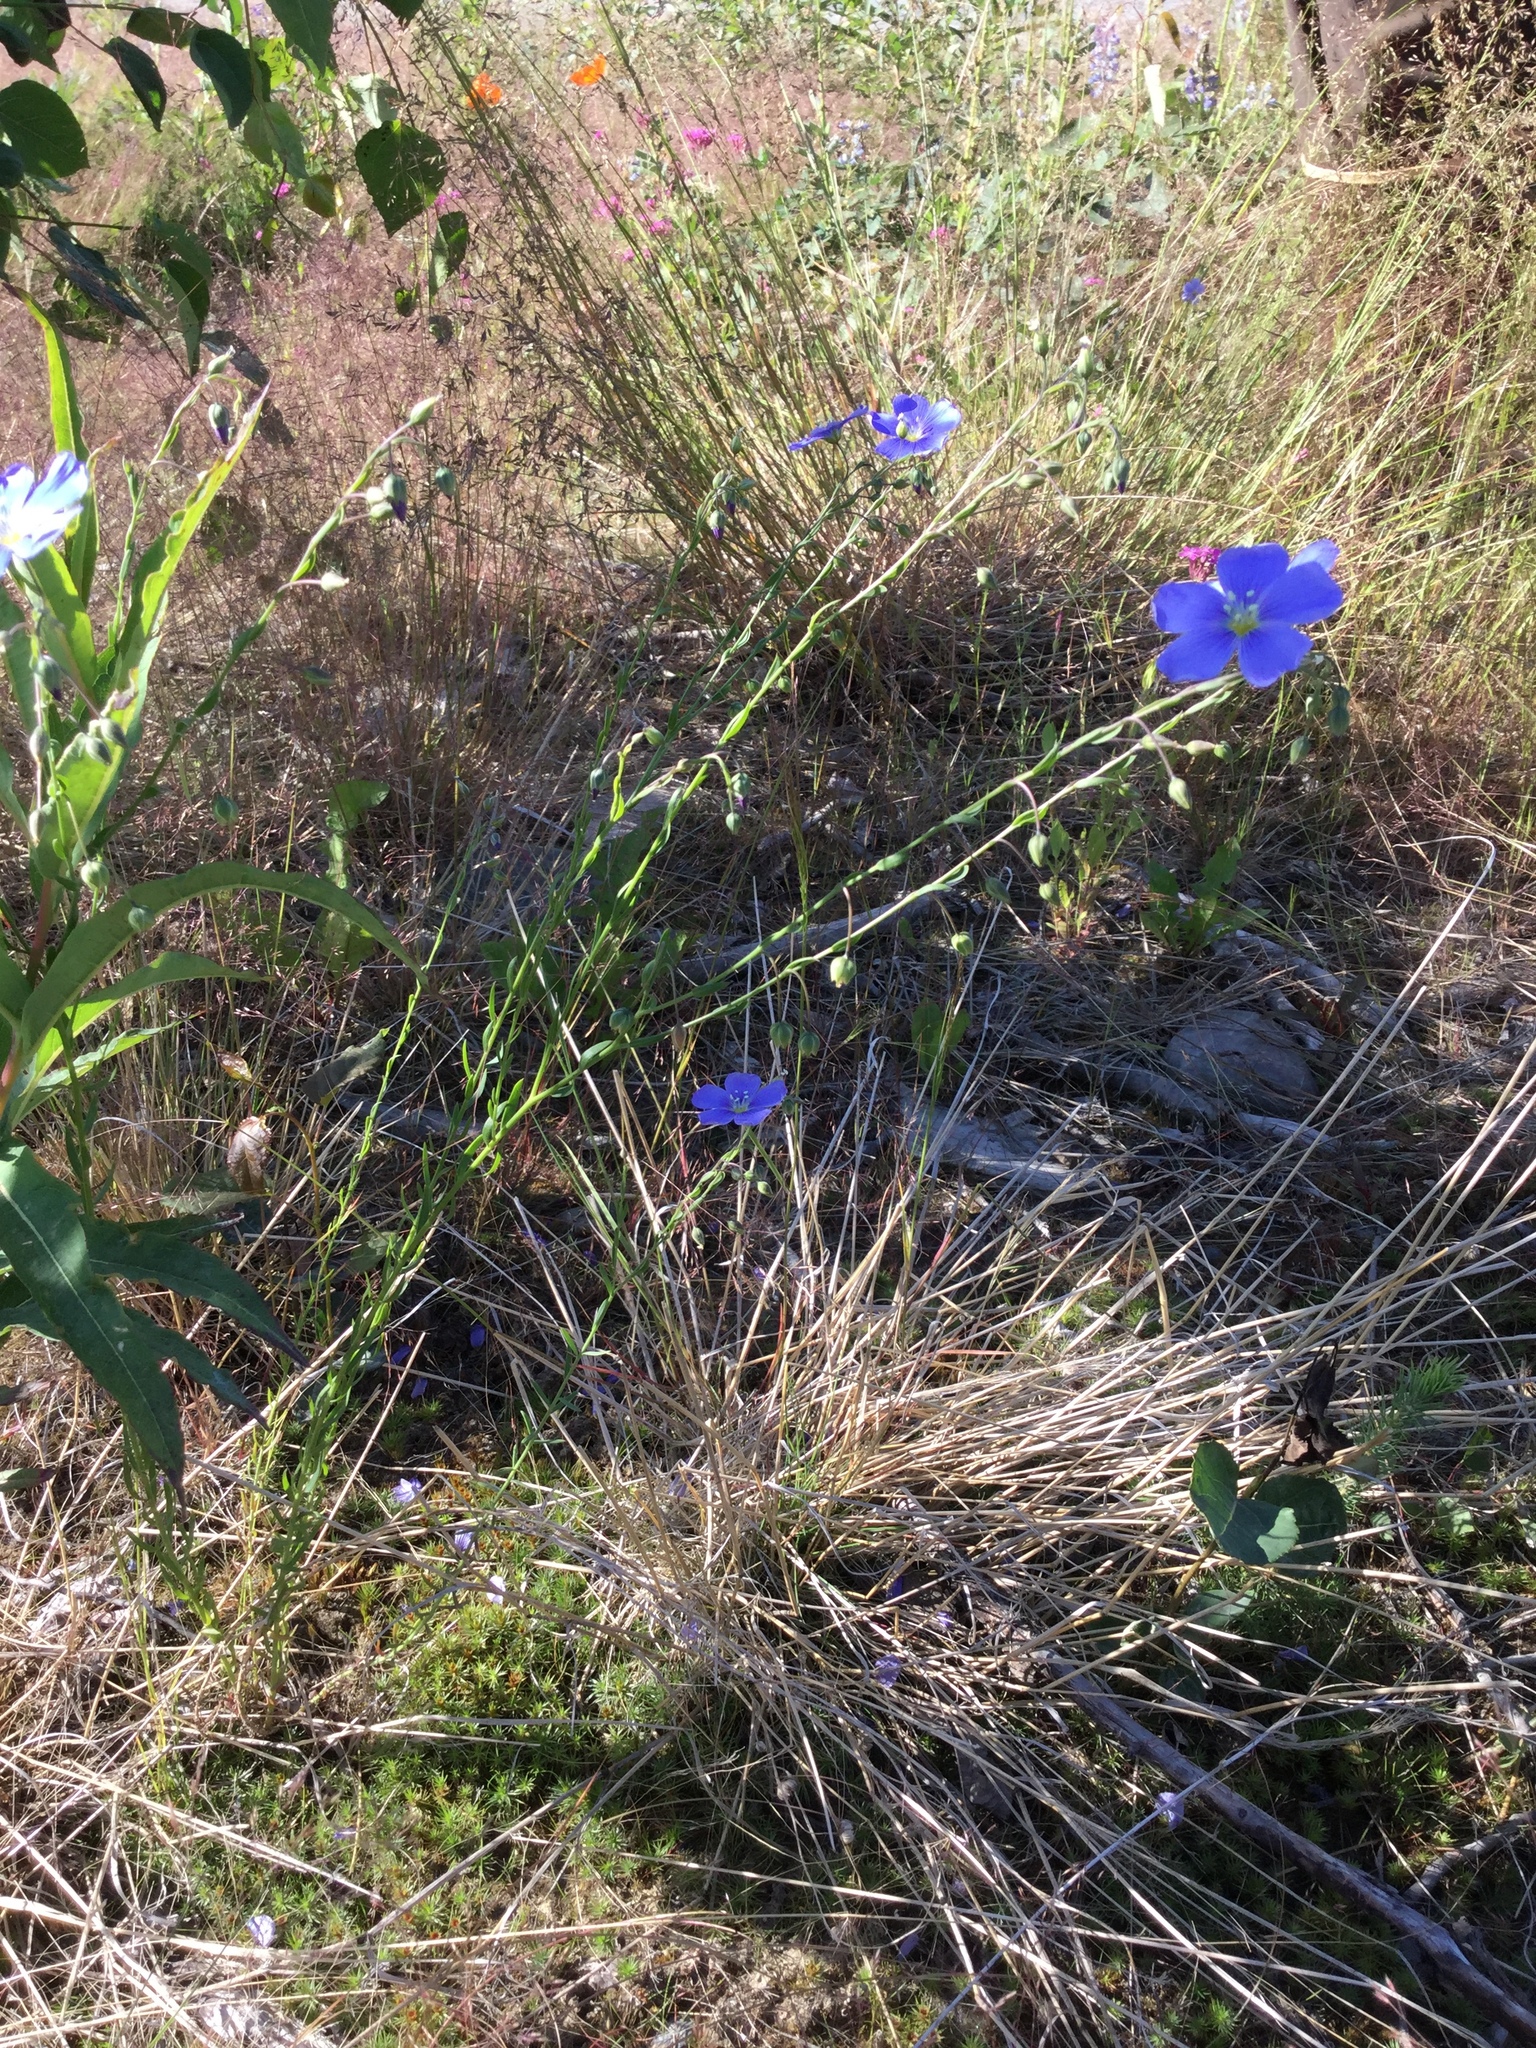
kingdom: Plantae
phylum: Tracheophyta
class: Magnoliopsida
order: Malpighiales
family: Linaceae
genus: Linum
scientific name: Linum lewisii
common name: Prairie flax
